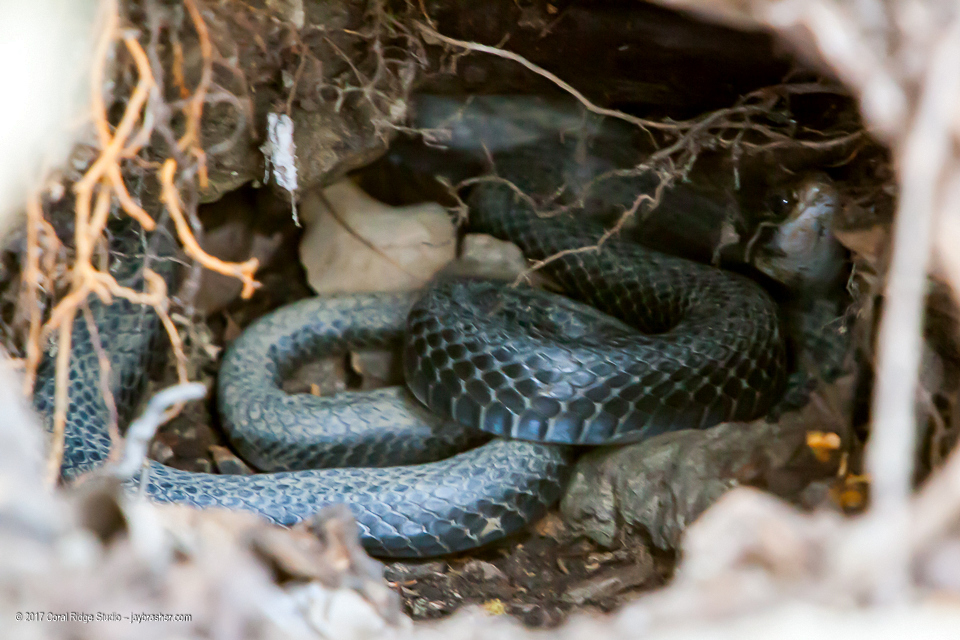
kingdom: Animalia
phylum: Chordata
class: Squamata
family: Colubridae
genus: Coluber
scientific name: Coluber constrictor
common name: Eastern racer
